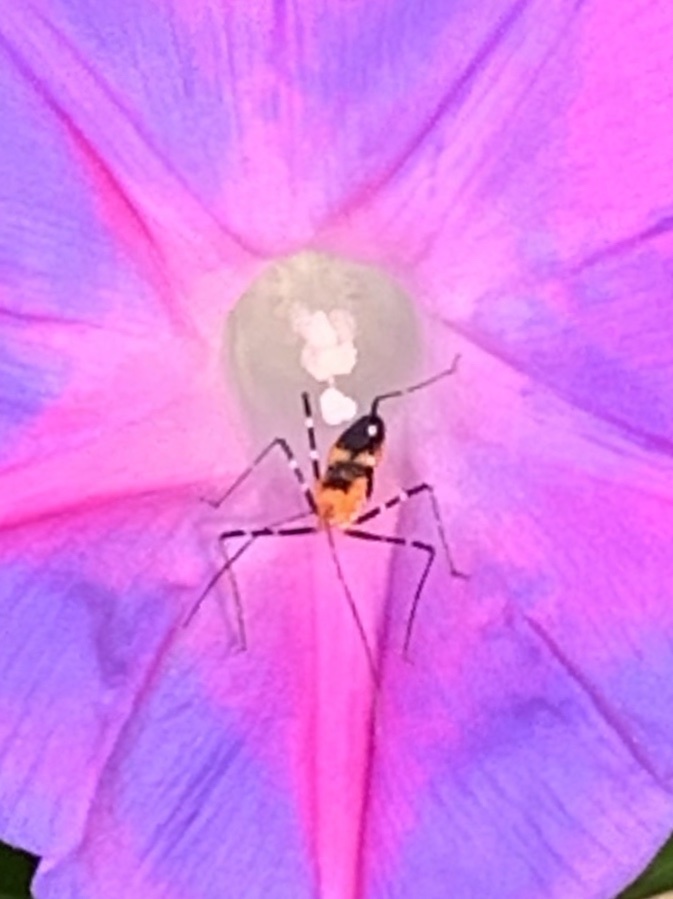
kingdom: Animalia
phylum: Arthropoda
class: Insecta
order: Hemiptera
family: Reduviidae
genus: Zelus
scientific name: Zelus longipes
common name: Milkweed assassin bug
